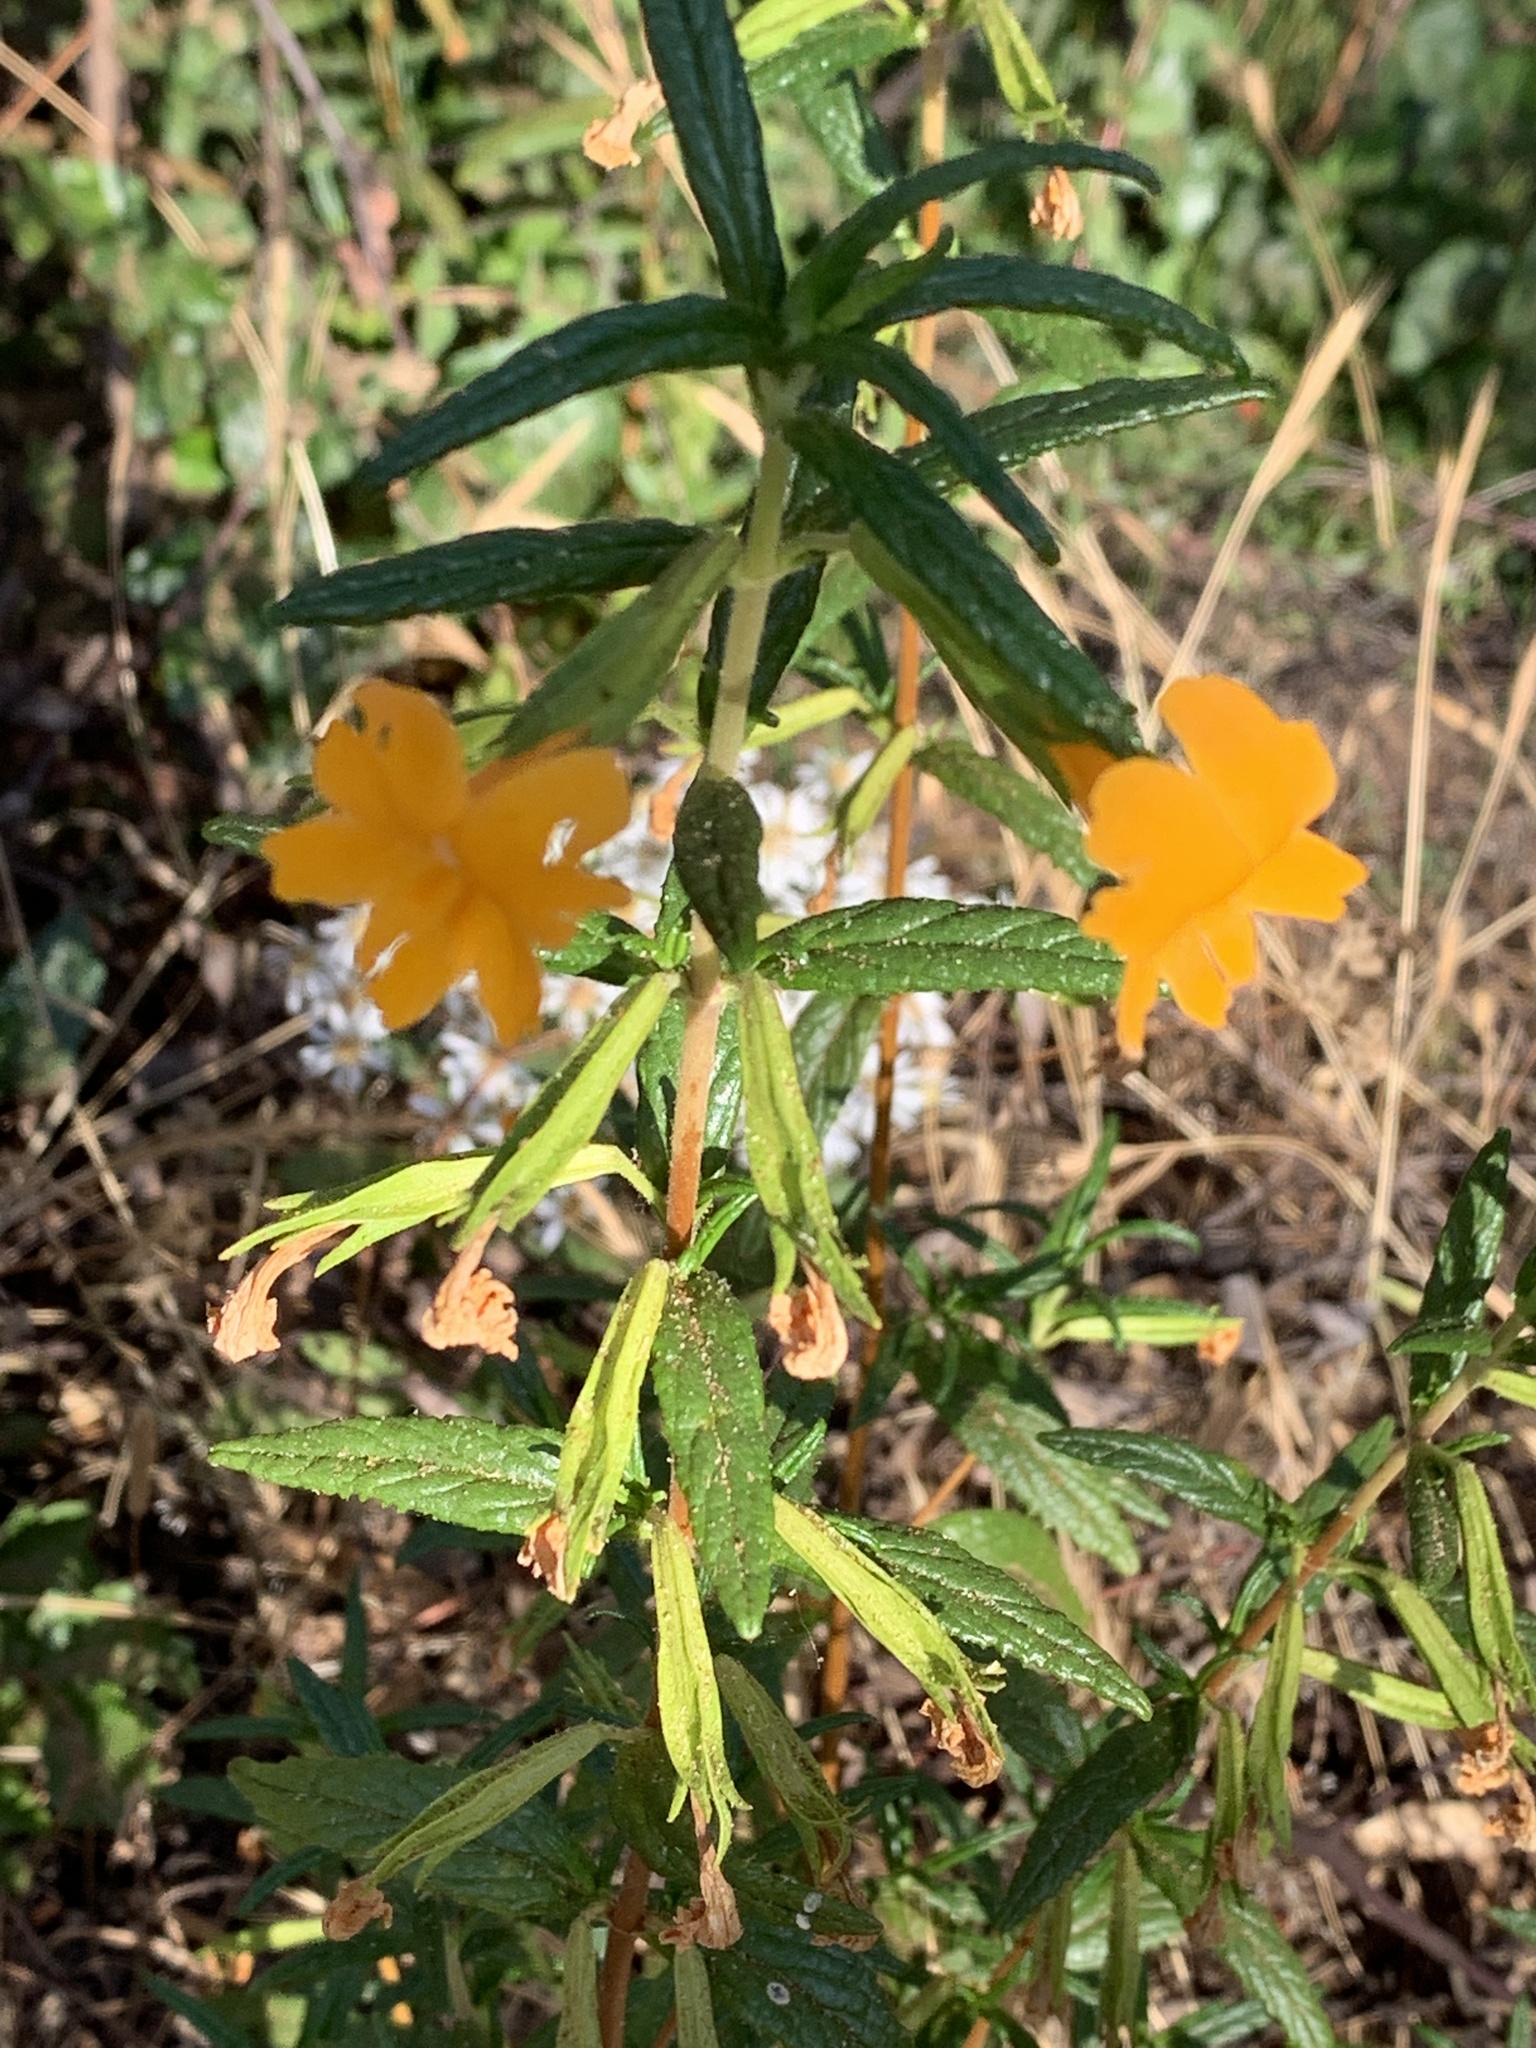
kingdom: Plantae
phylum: Tracheophyta
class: Magnoliopsida
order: Lamiales
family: Phrymaceae
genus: Diplacus
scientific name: Diplacus aurantiacus
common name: Bush monkey-flower
